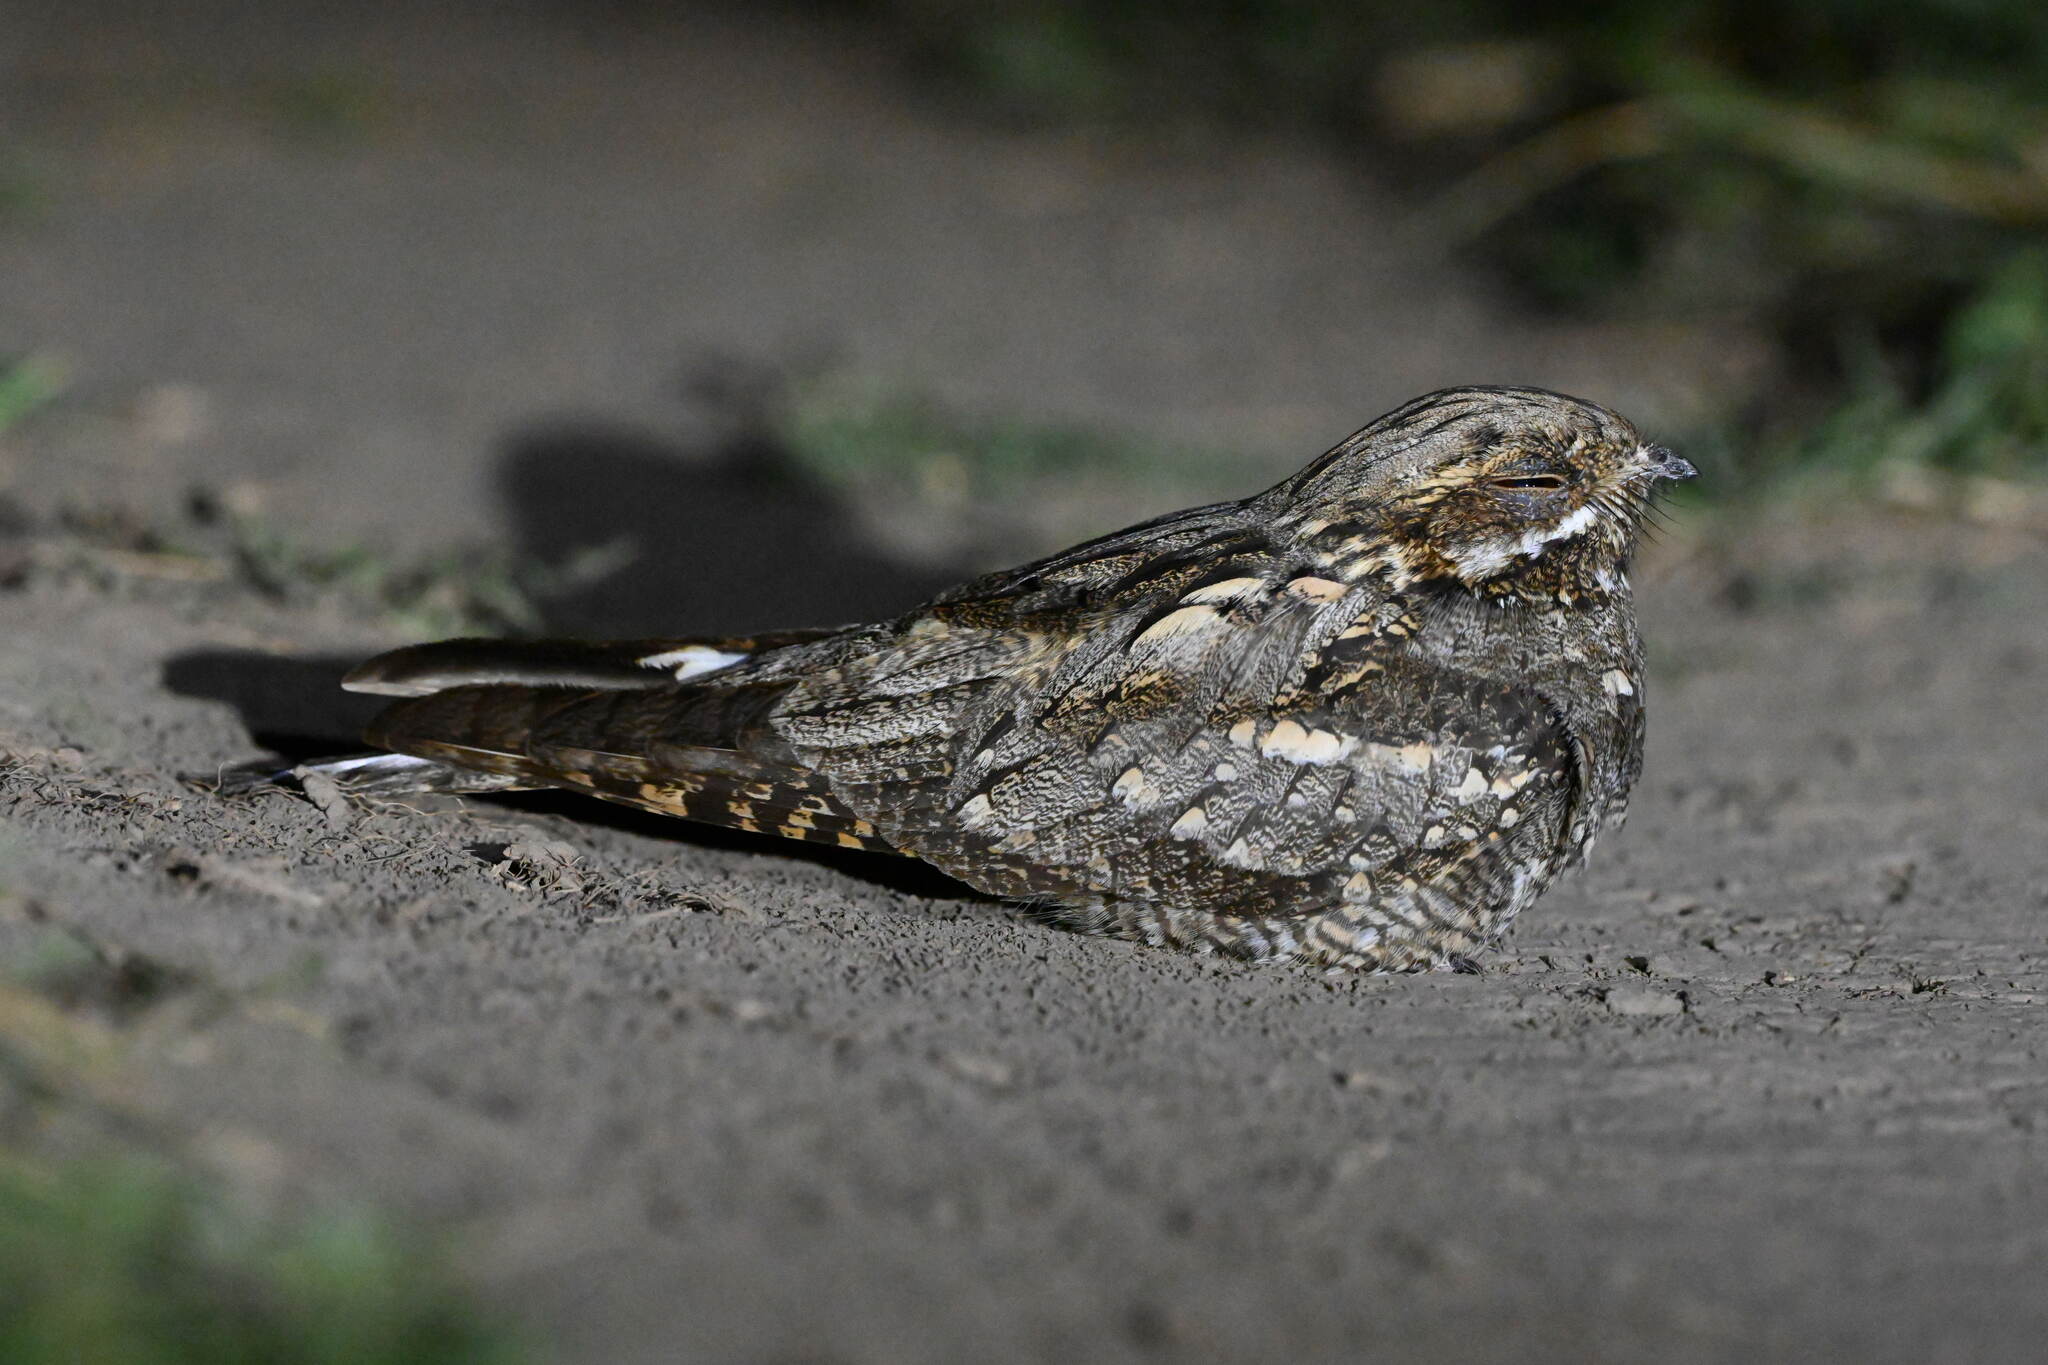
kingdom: Animalia
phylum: Chordata
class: Aves
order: Caprimulgiformes
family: Caprimulgidae
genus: Caprimulgus
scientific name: Caprimulgus europaeus
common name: European nightjar
